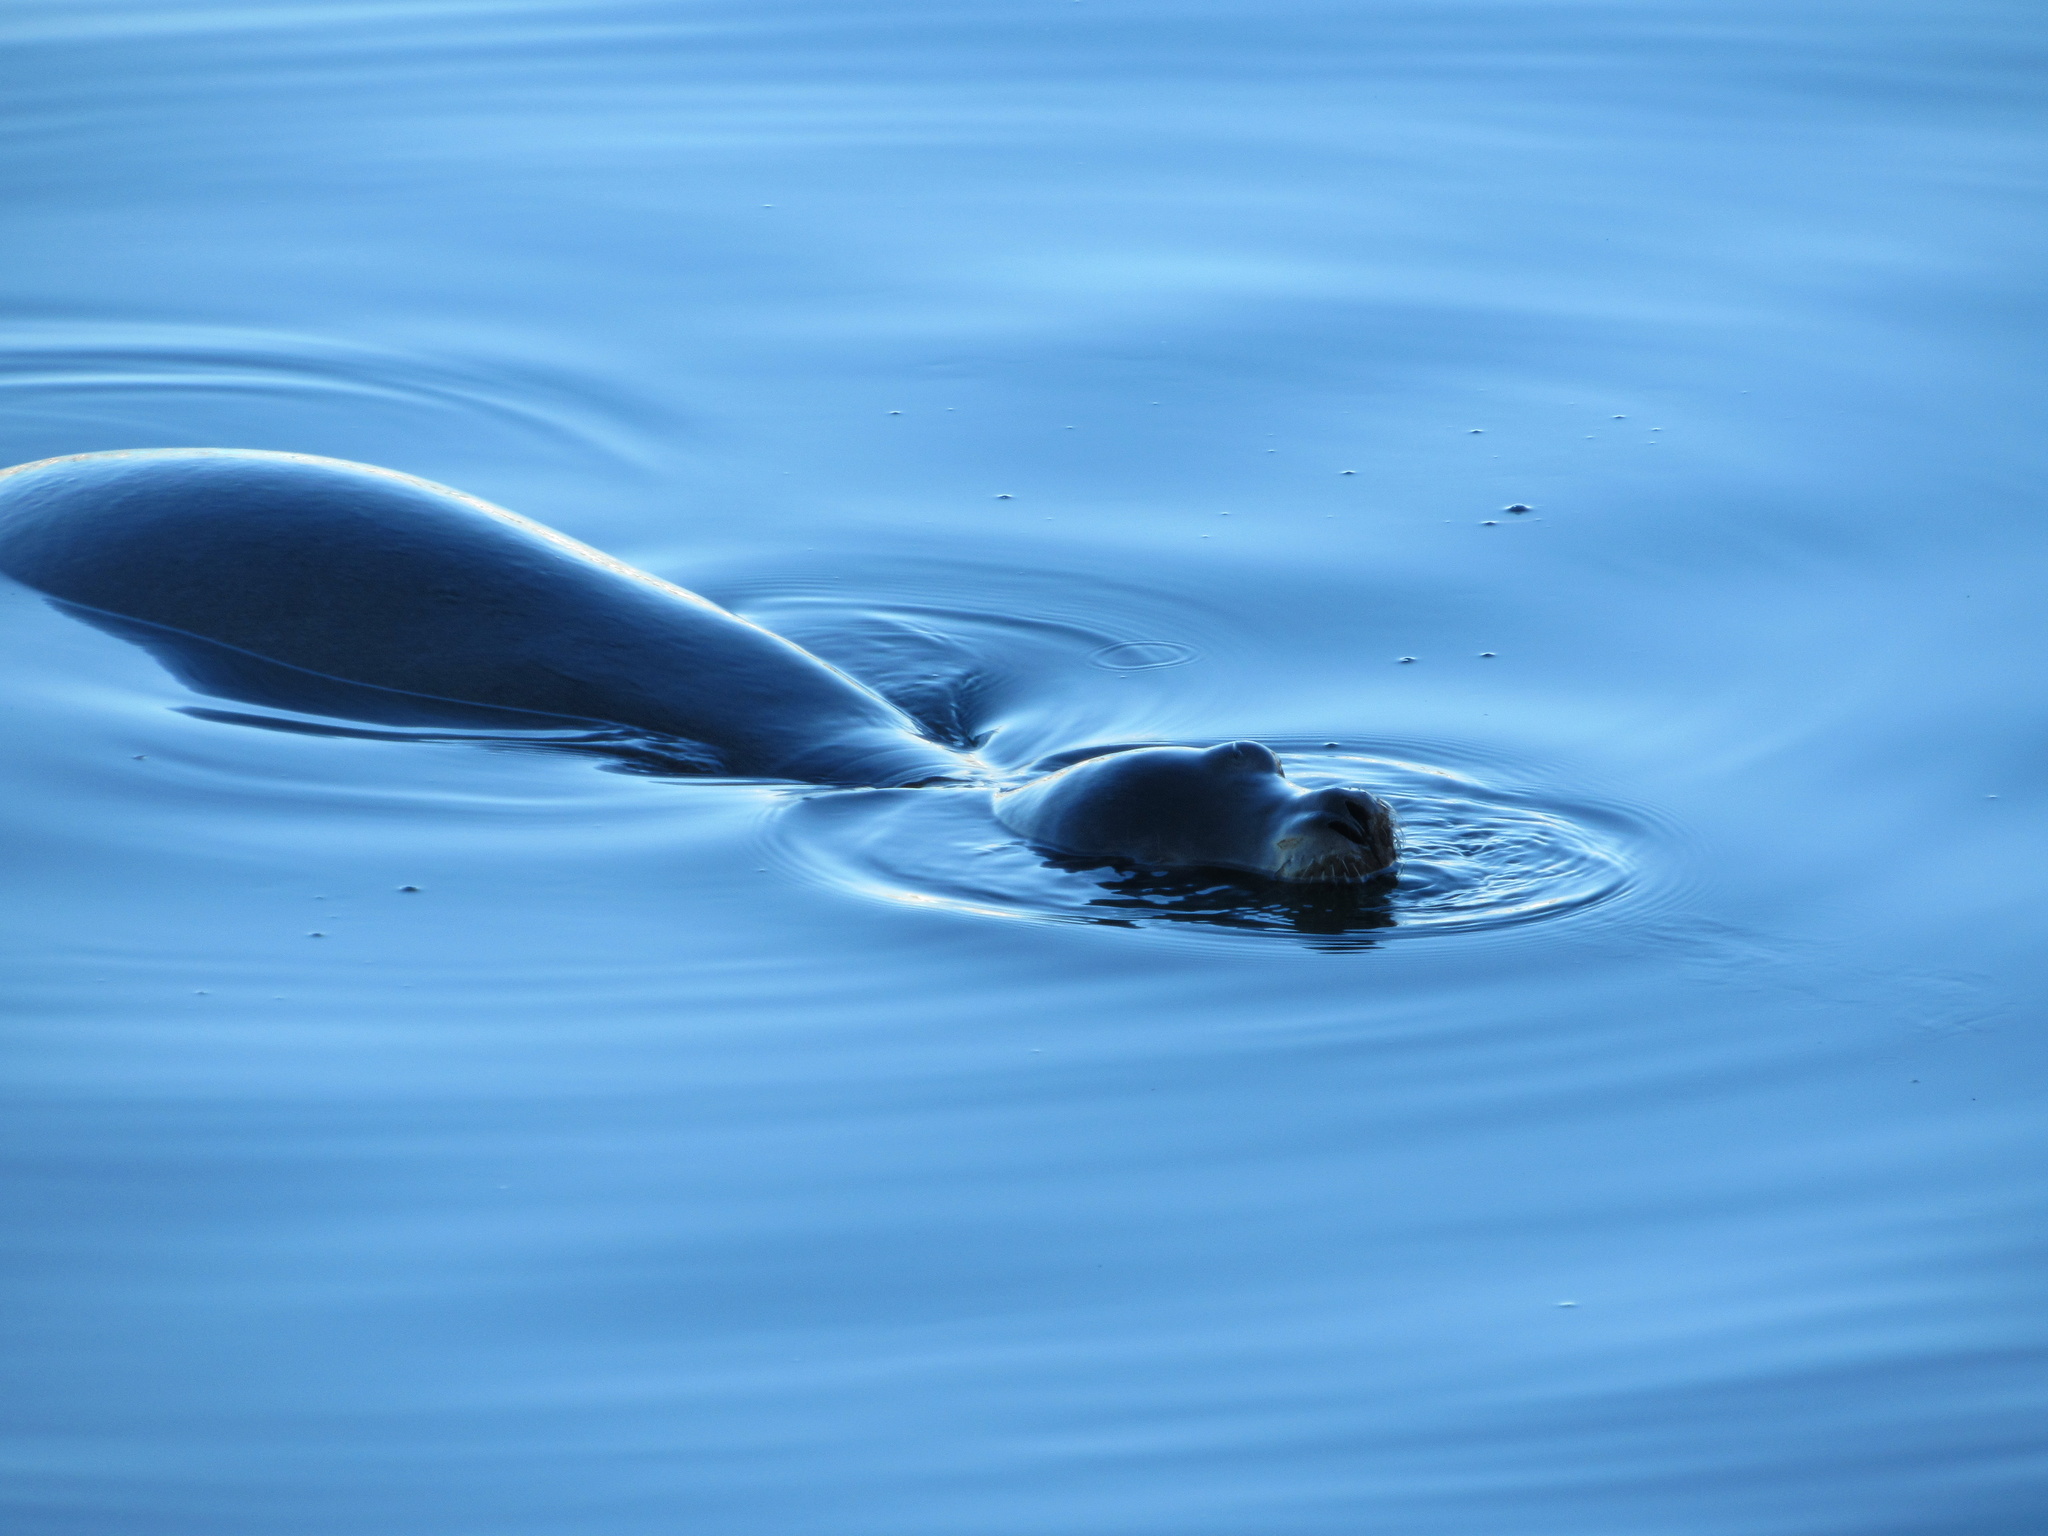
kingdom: Animalia
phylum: Chordata
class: Mammalia
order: Carnivora
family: Otariidae
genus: Zalophus
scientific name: Zalophus californianus
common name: California sea lion
